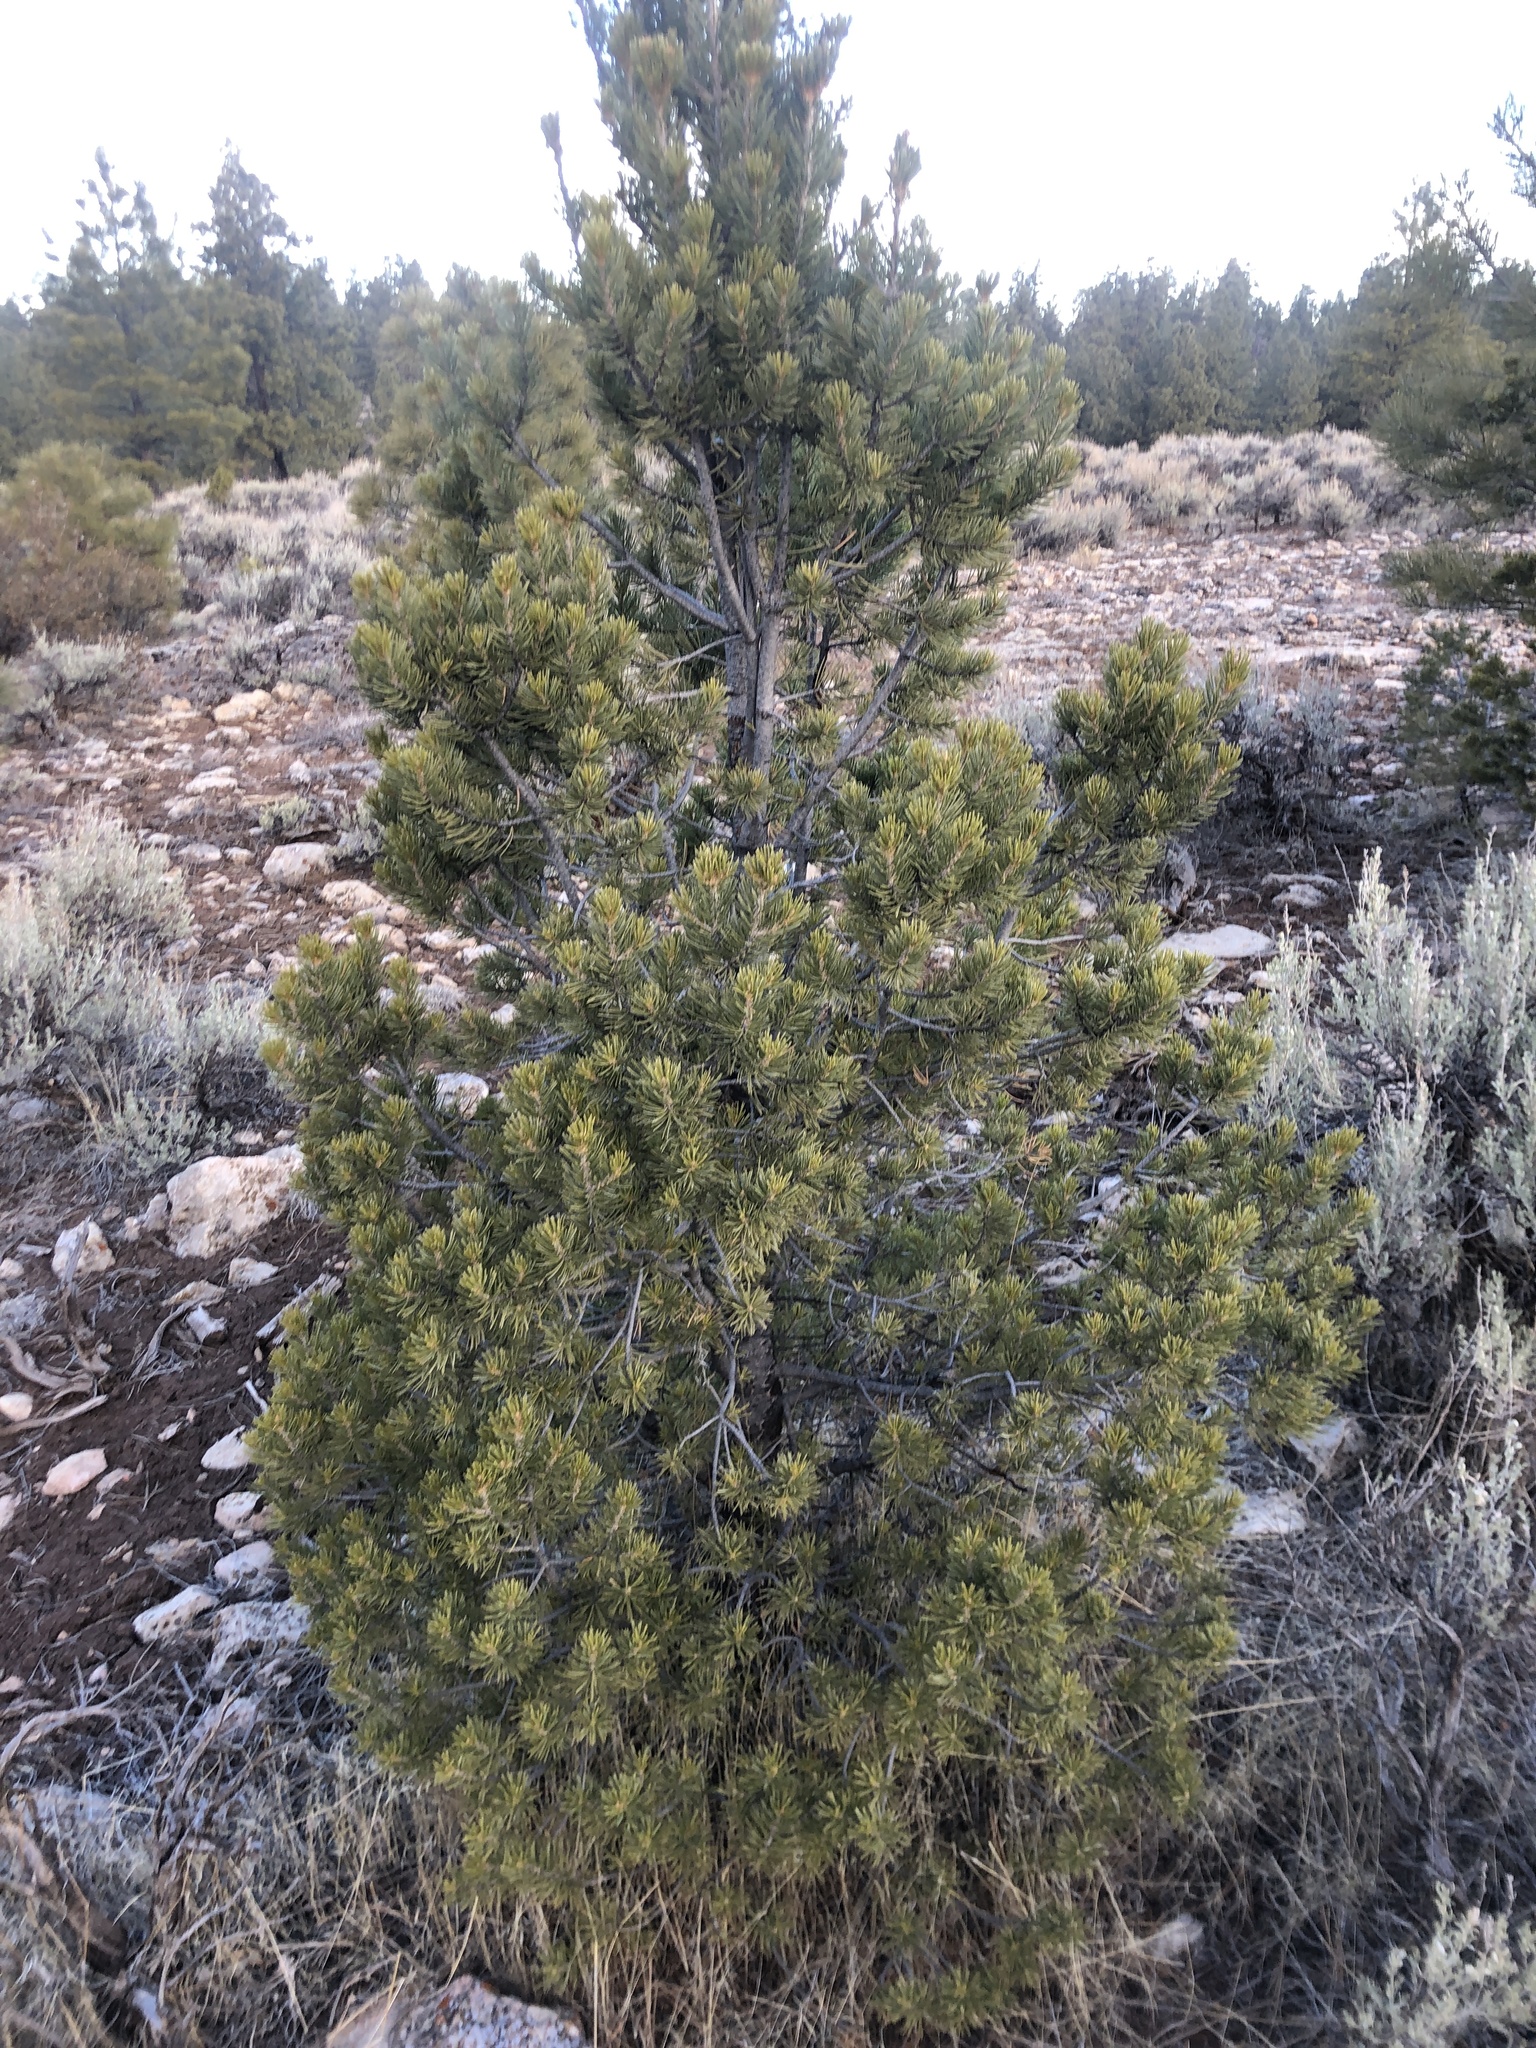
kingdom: Plantae
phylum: Tracheophyta
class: Pinopsida
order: Pinales
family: Pinaceae
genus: Pinus
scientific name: Pinus edulis
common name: Colorado pinyon
